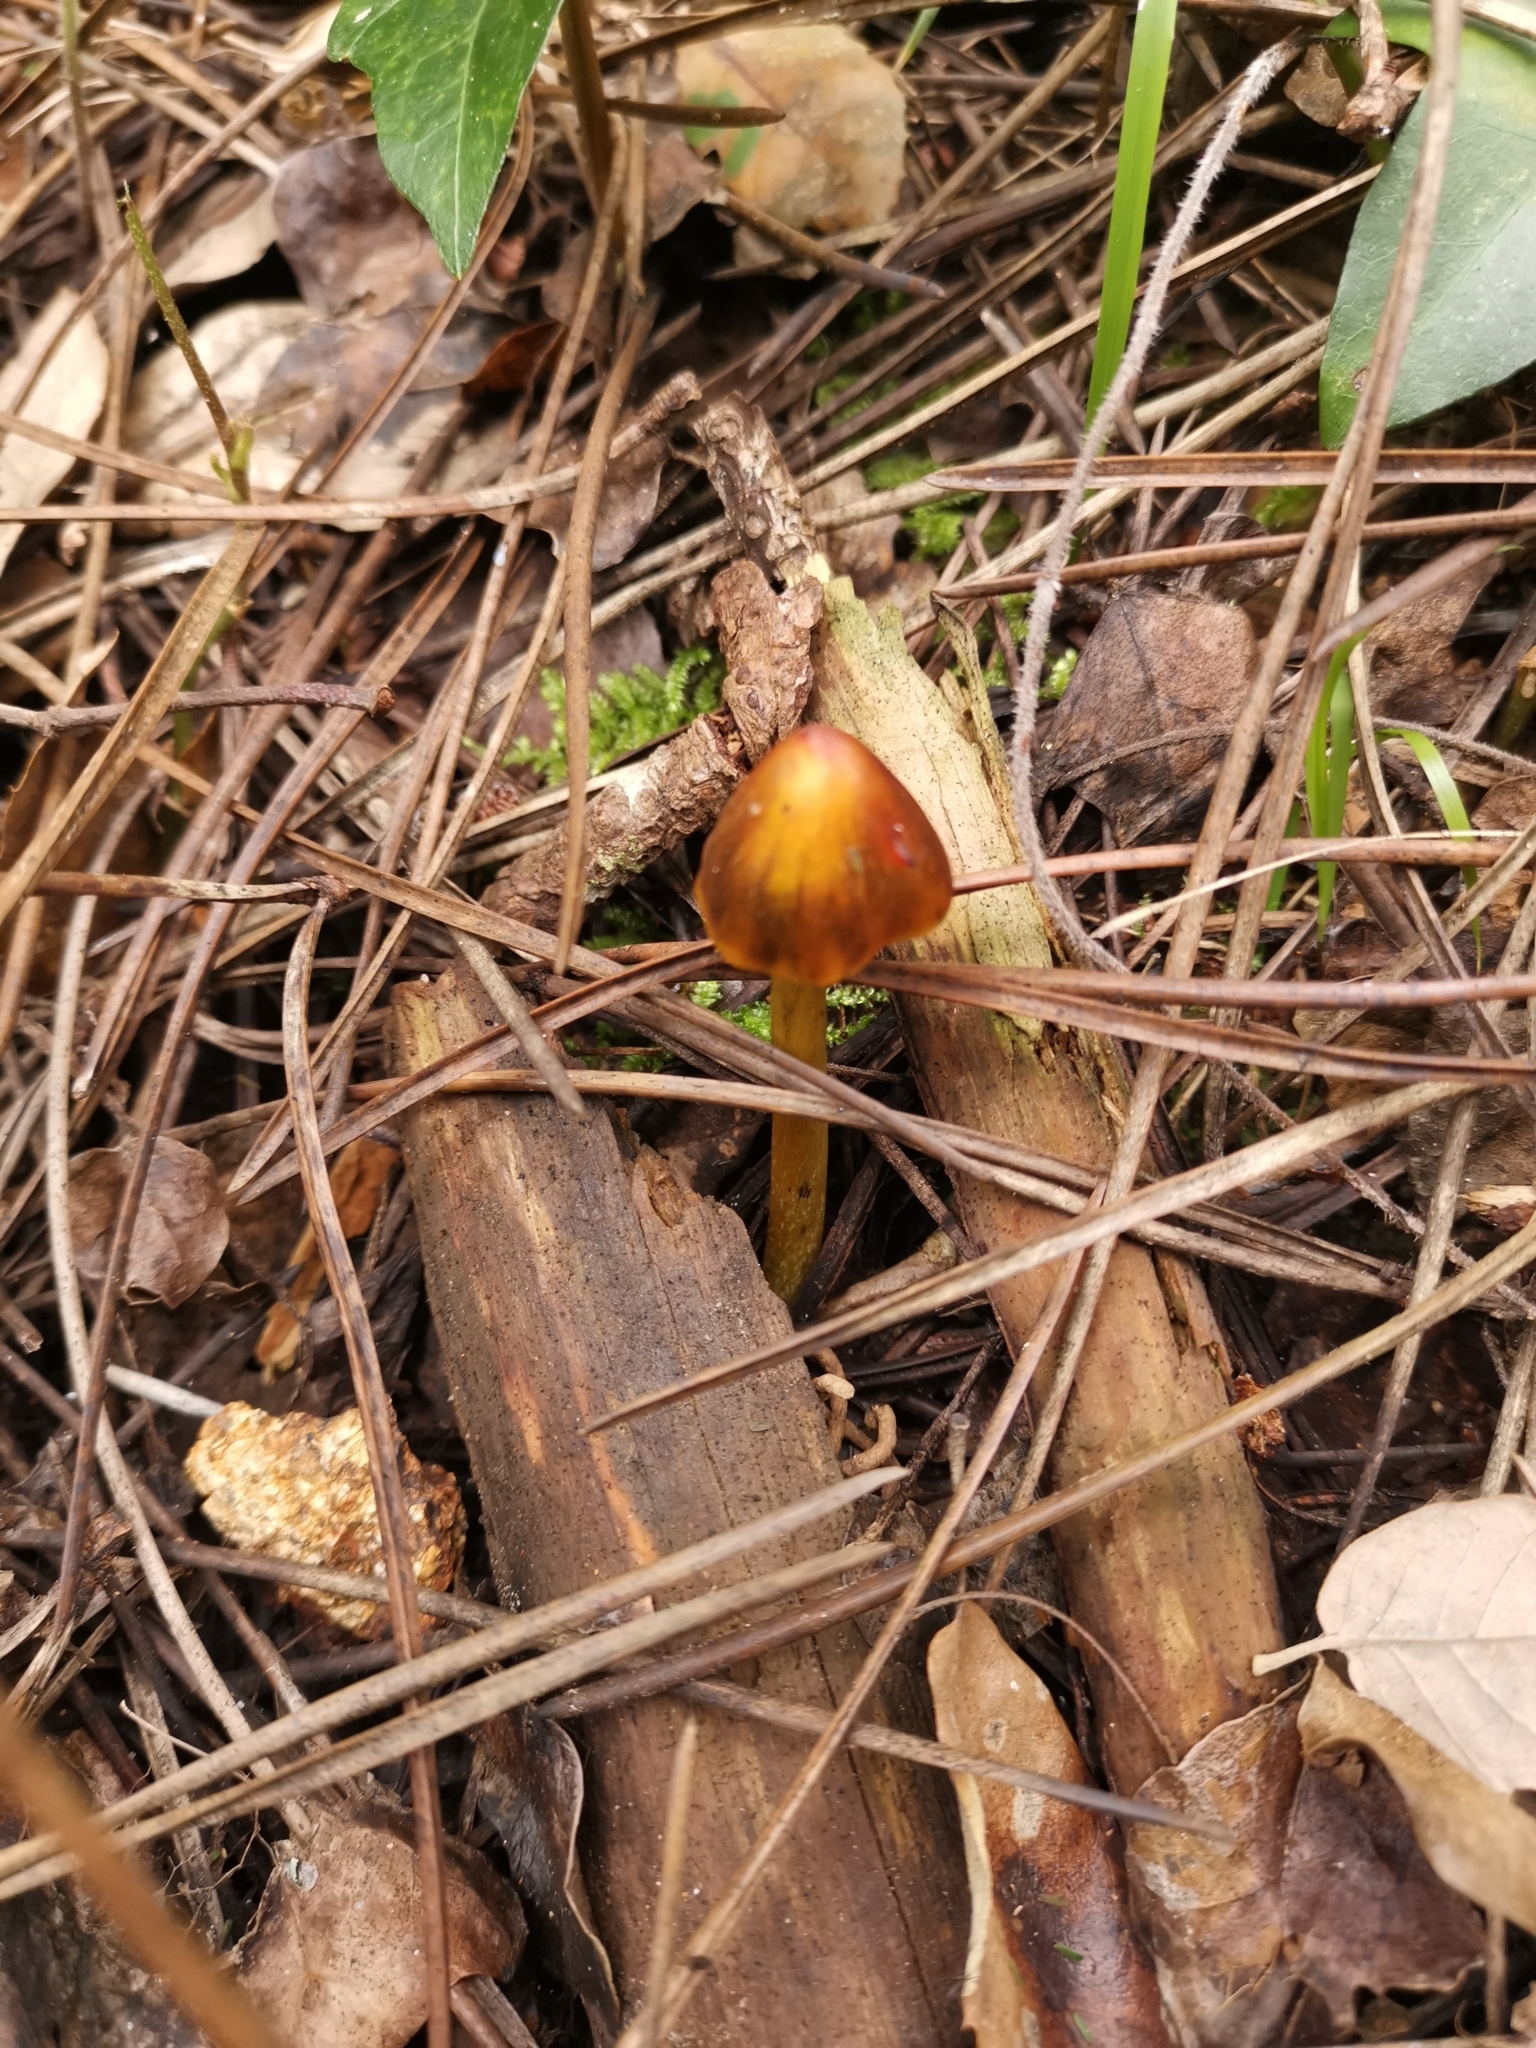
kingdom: Fungi
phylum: Basidiomycota
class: Agaricomycetes
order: Agaricales
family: Hygrophoraceae
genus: Hygrocybe
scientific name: Hygrocybe conica
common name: Blackening wax-cap
